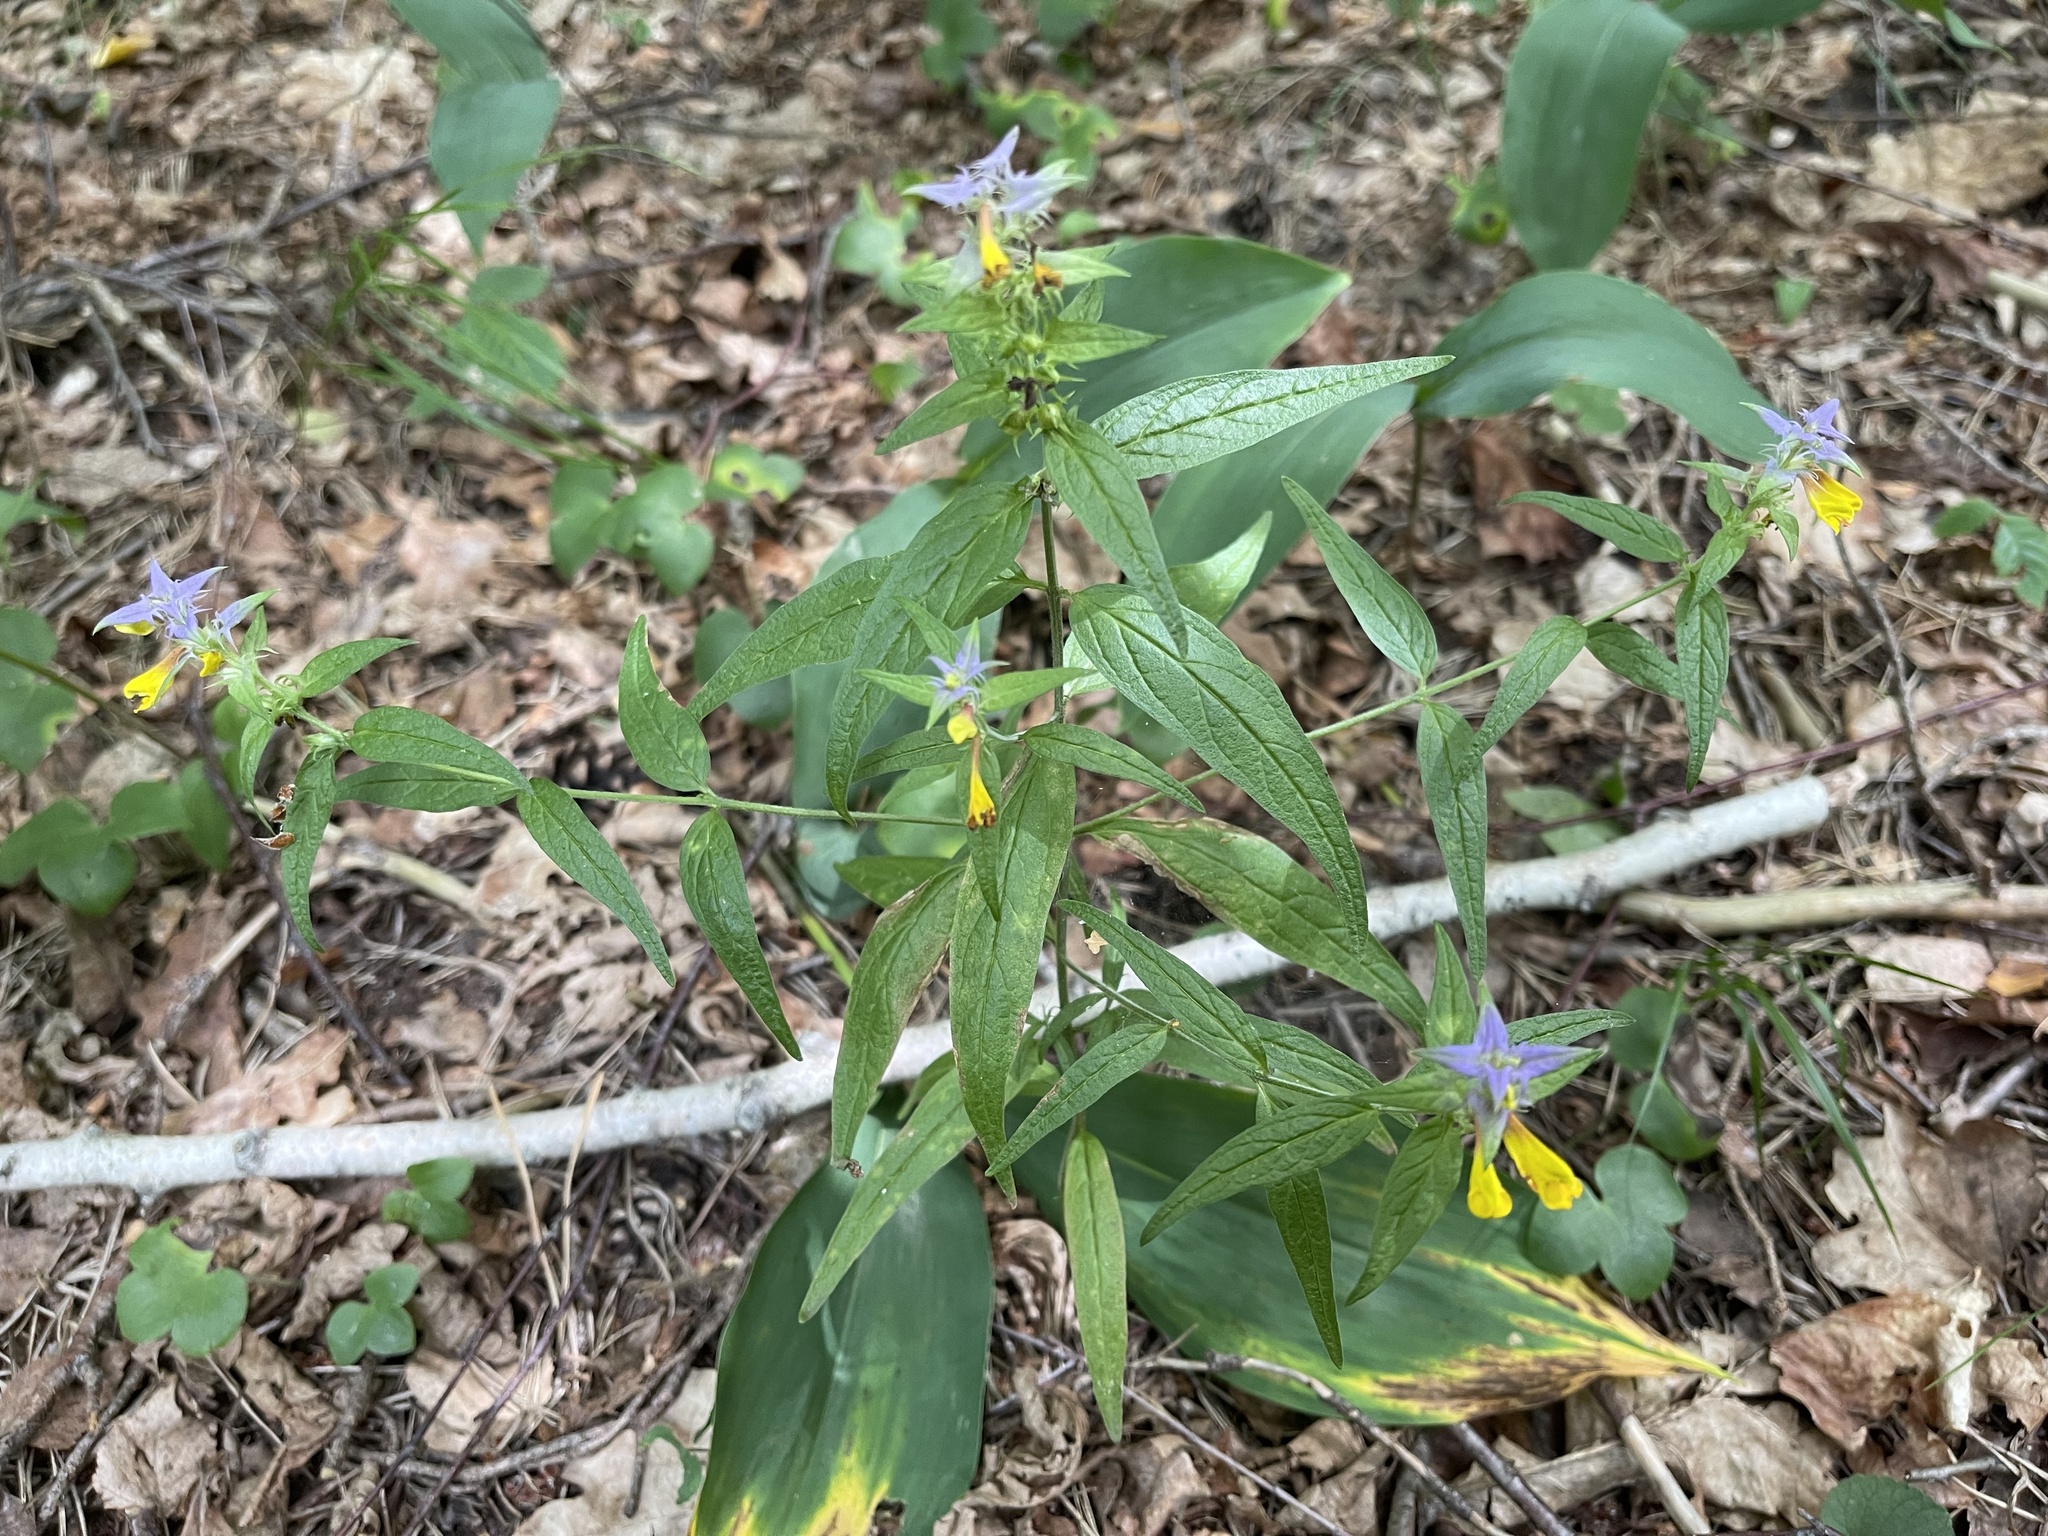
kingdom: Plantae
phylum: Tracheophyta
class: Magnoliopsida
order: Lamiales
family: Orobanchaceae
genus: Melampyrum
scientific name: Melampyrum nemorosum
